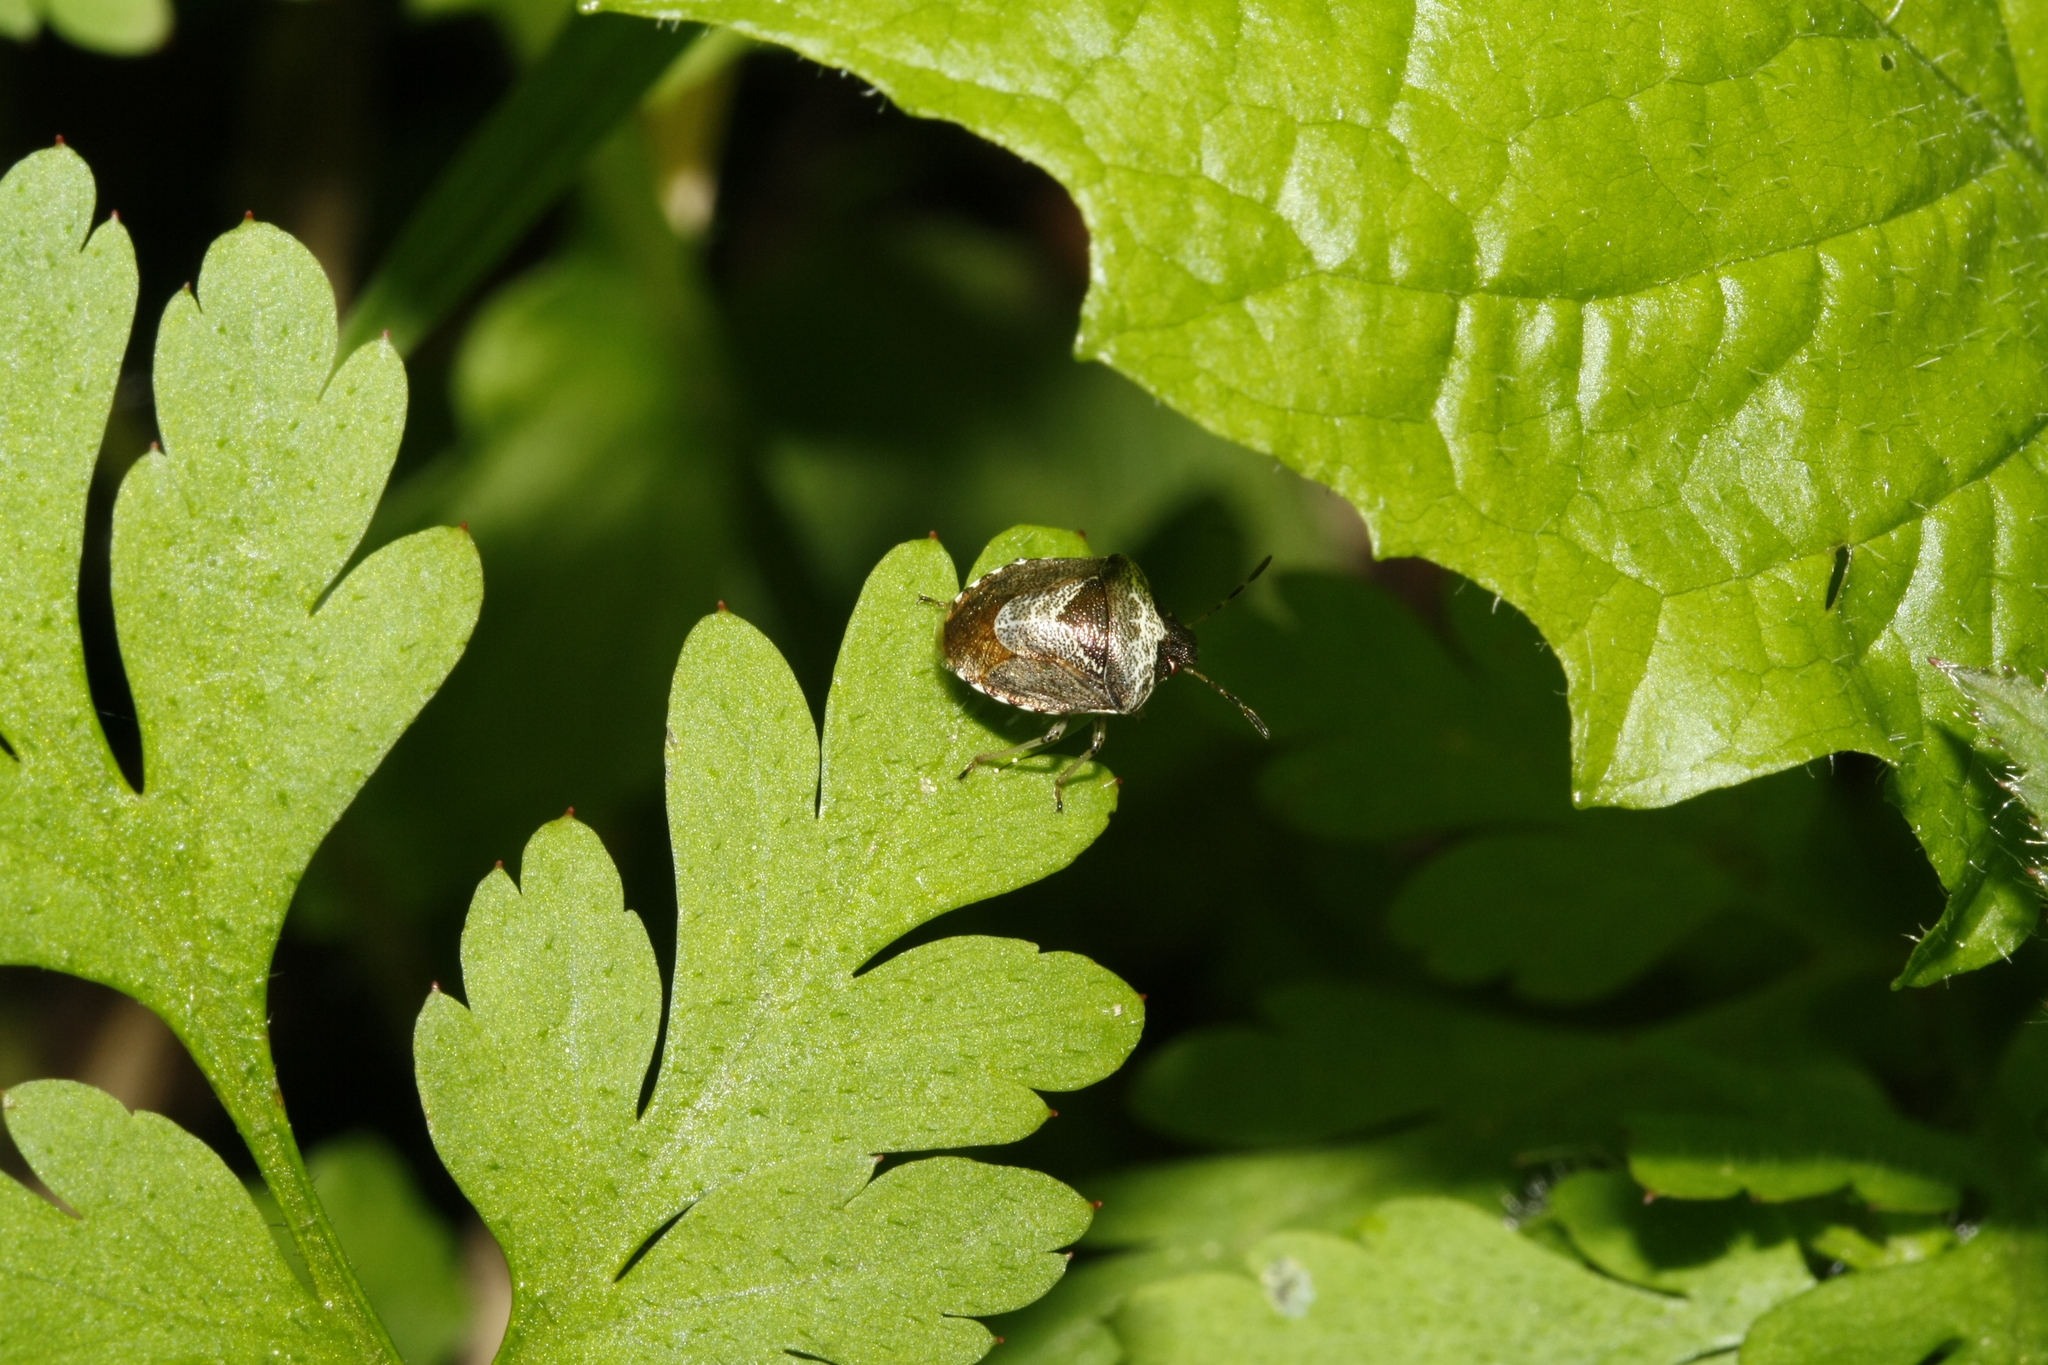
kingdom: Animalia
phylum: Arthropoda
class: Insecta
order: Hemiptera
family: Pentatomidae
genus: Eysarcoris
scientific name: Eysarcoris venustissimus
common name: Woundwort shieldbug
